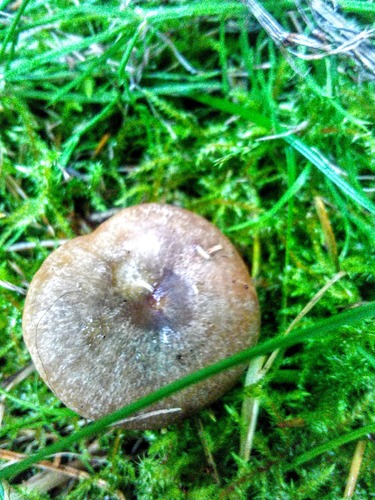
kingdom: Fungi
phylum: Basidiomycota
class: Agaricomycetes
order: Russulales
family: Russulaceae
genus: Lactarius
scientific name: Lactarius deliciosus
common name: Saffron milk-cap
